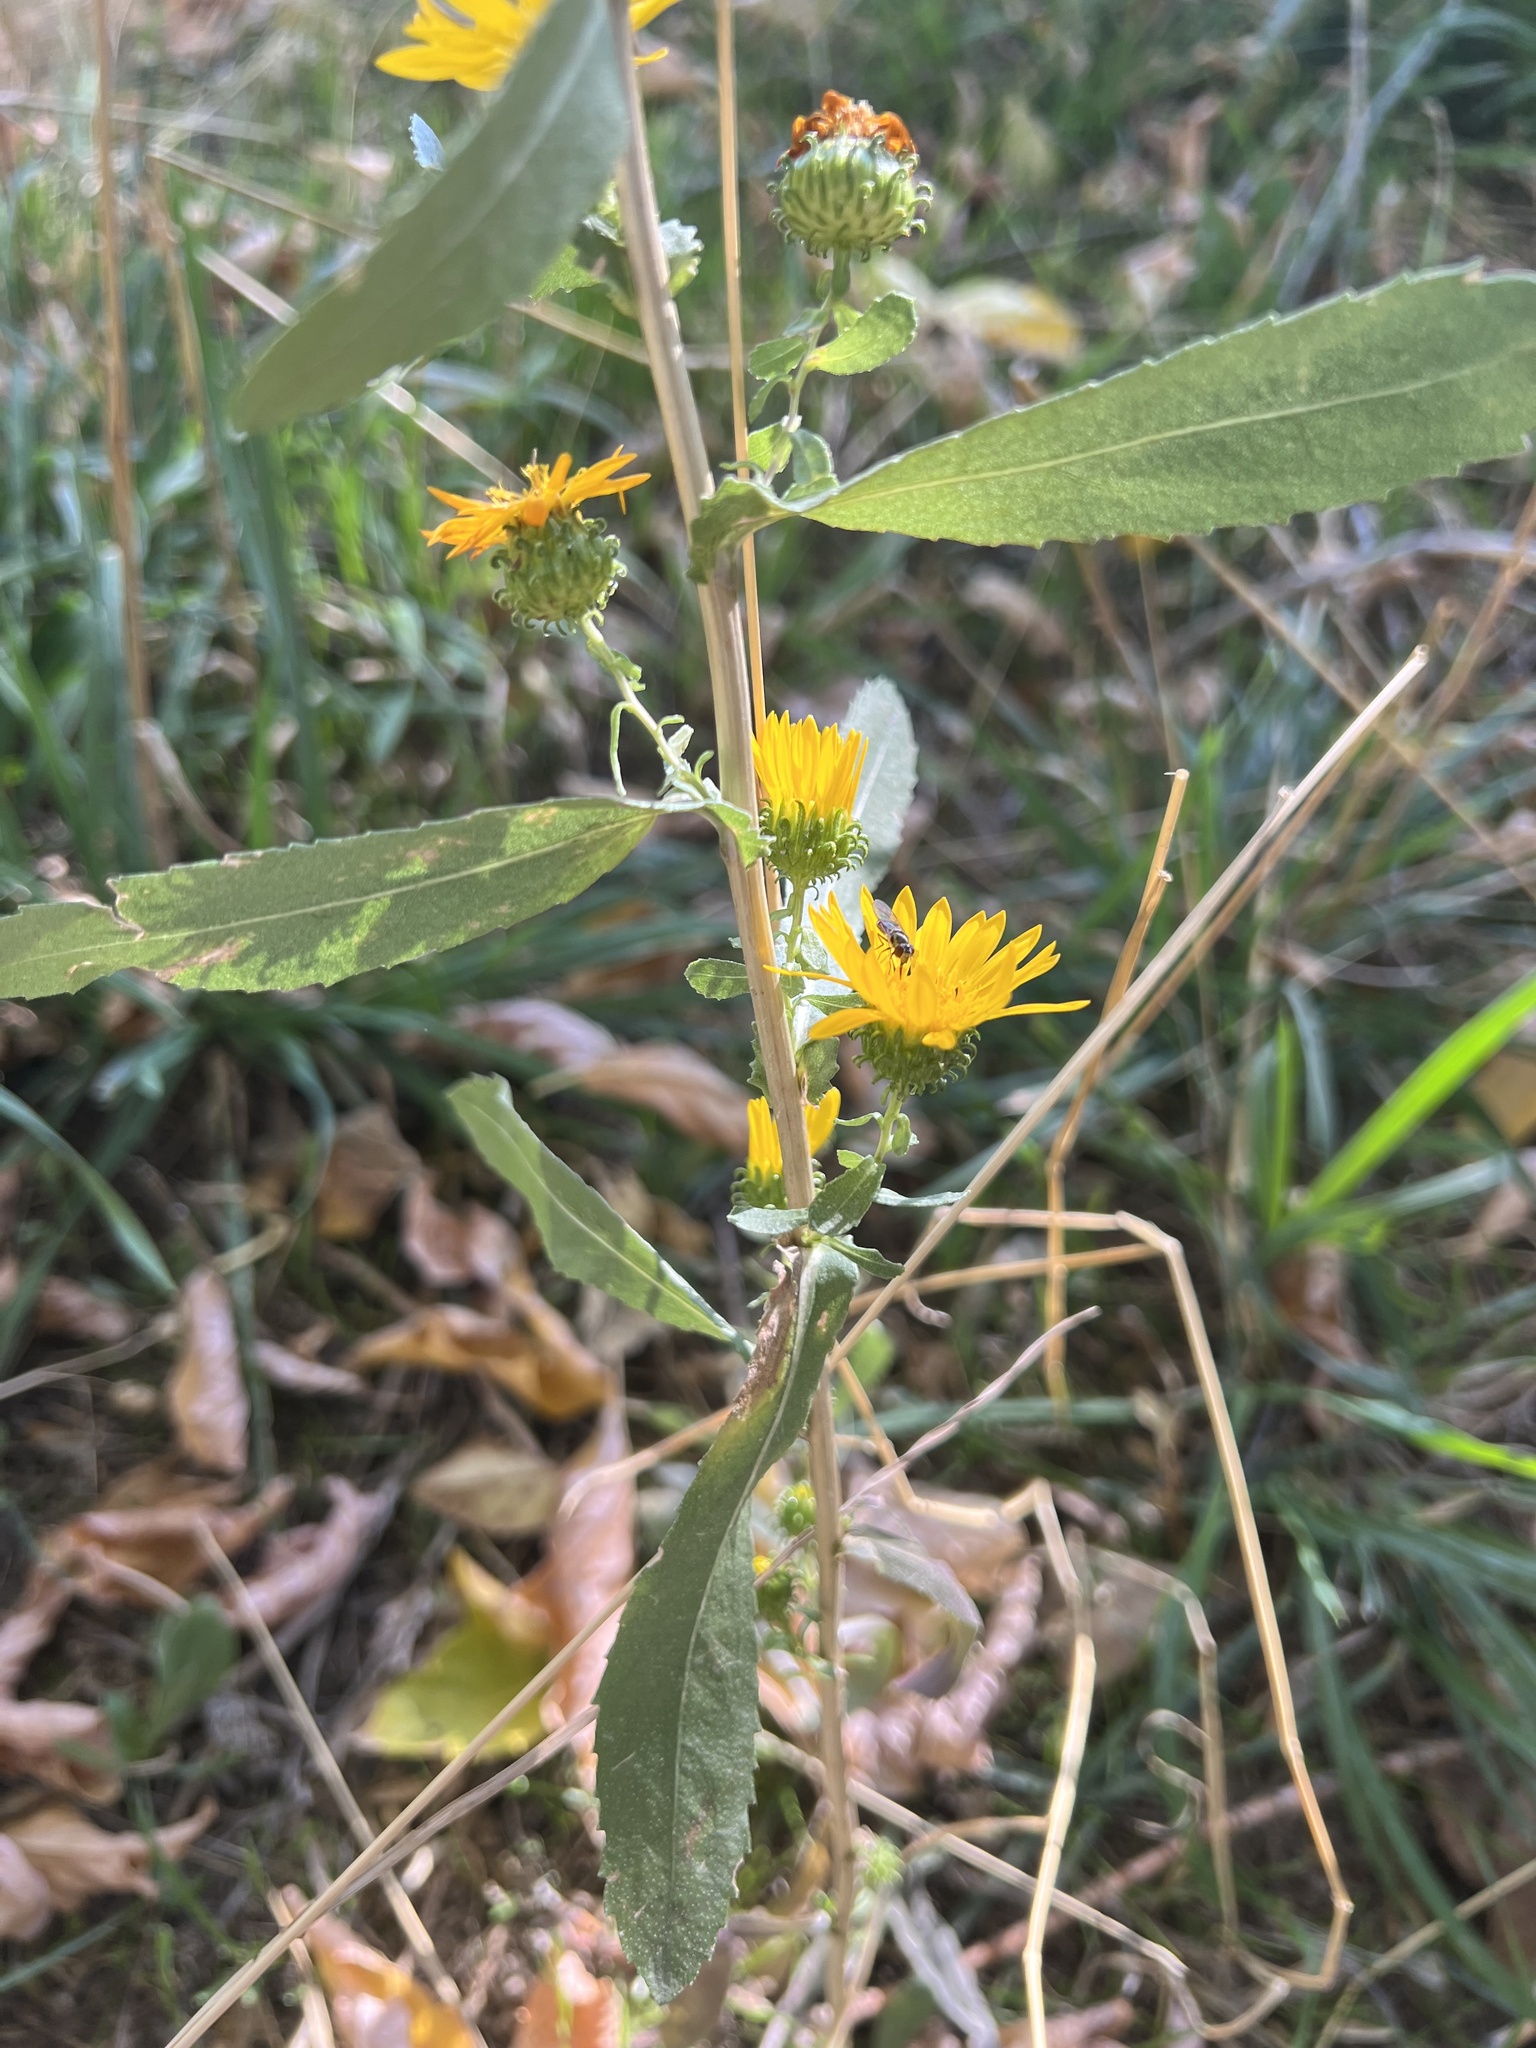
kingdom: Plantae
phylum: Tracheophyta
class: Magnoliopsida
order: Asterales
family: Asteraceae
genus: Grindelia
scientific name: Grindelia squarrosa
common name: Curly-cup gumweed
